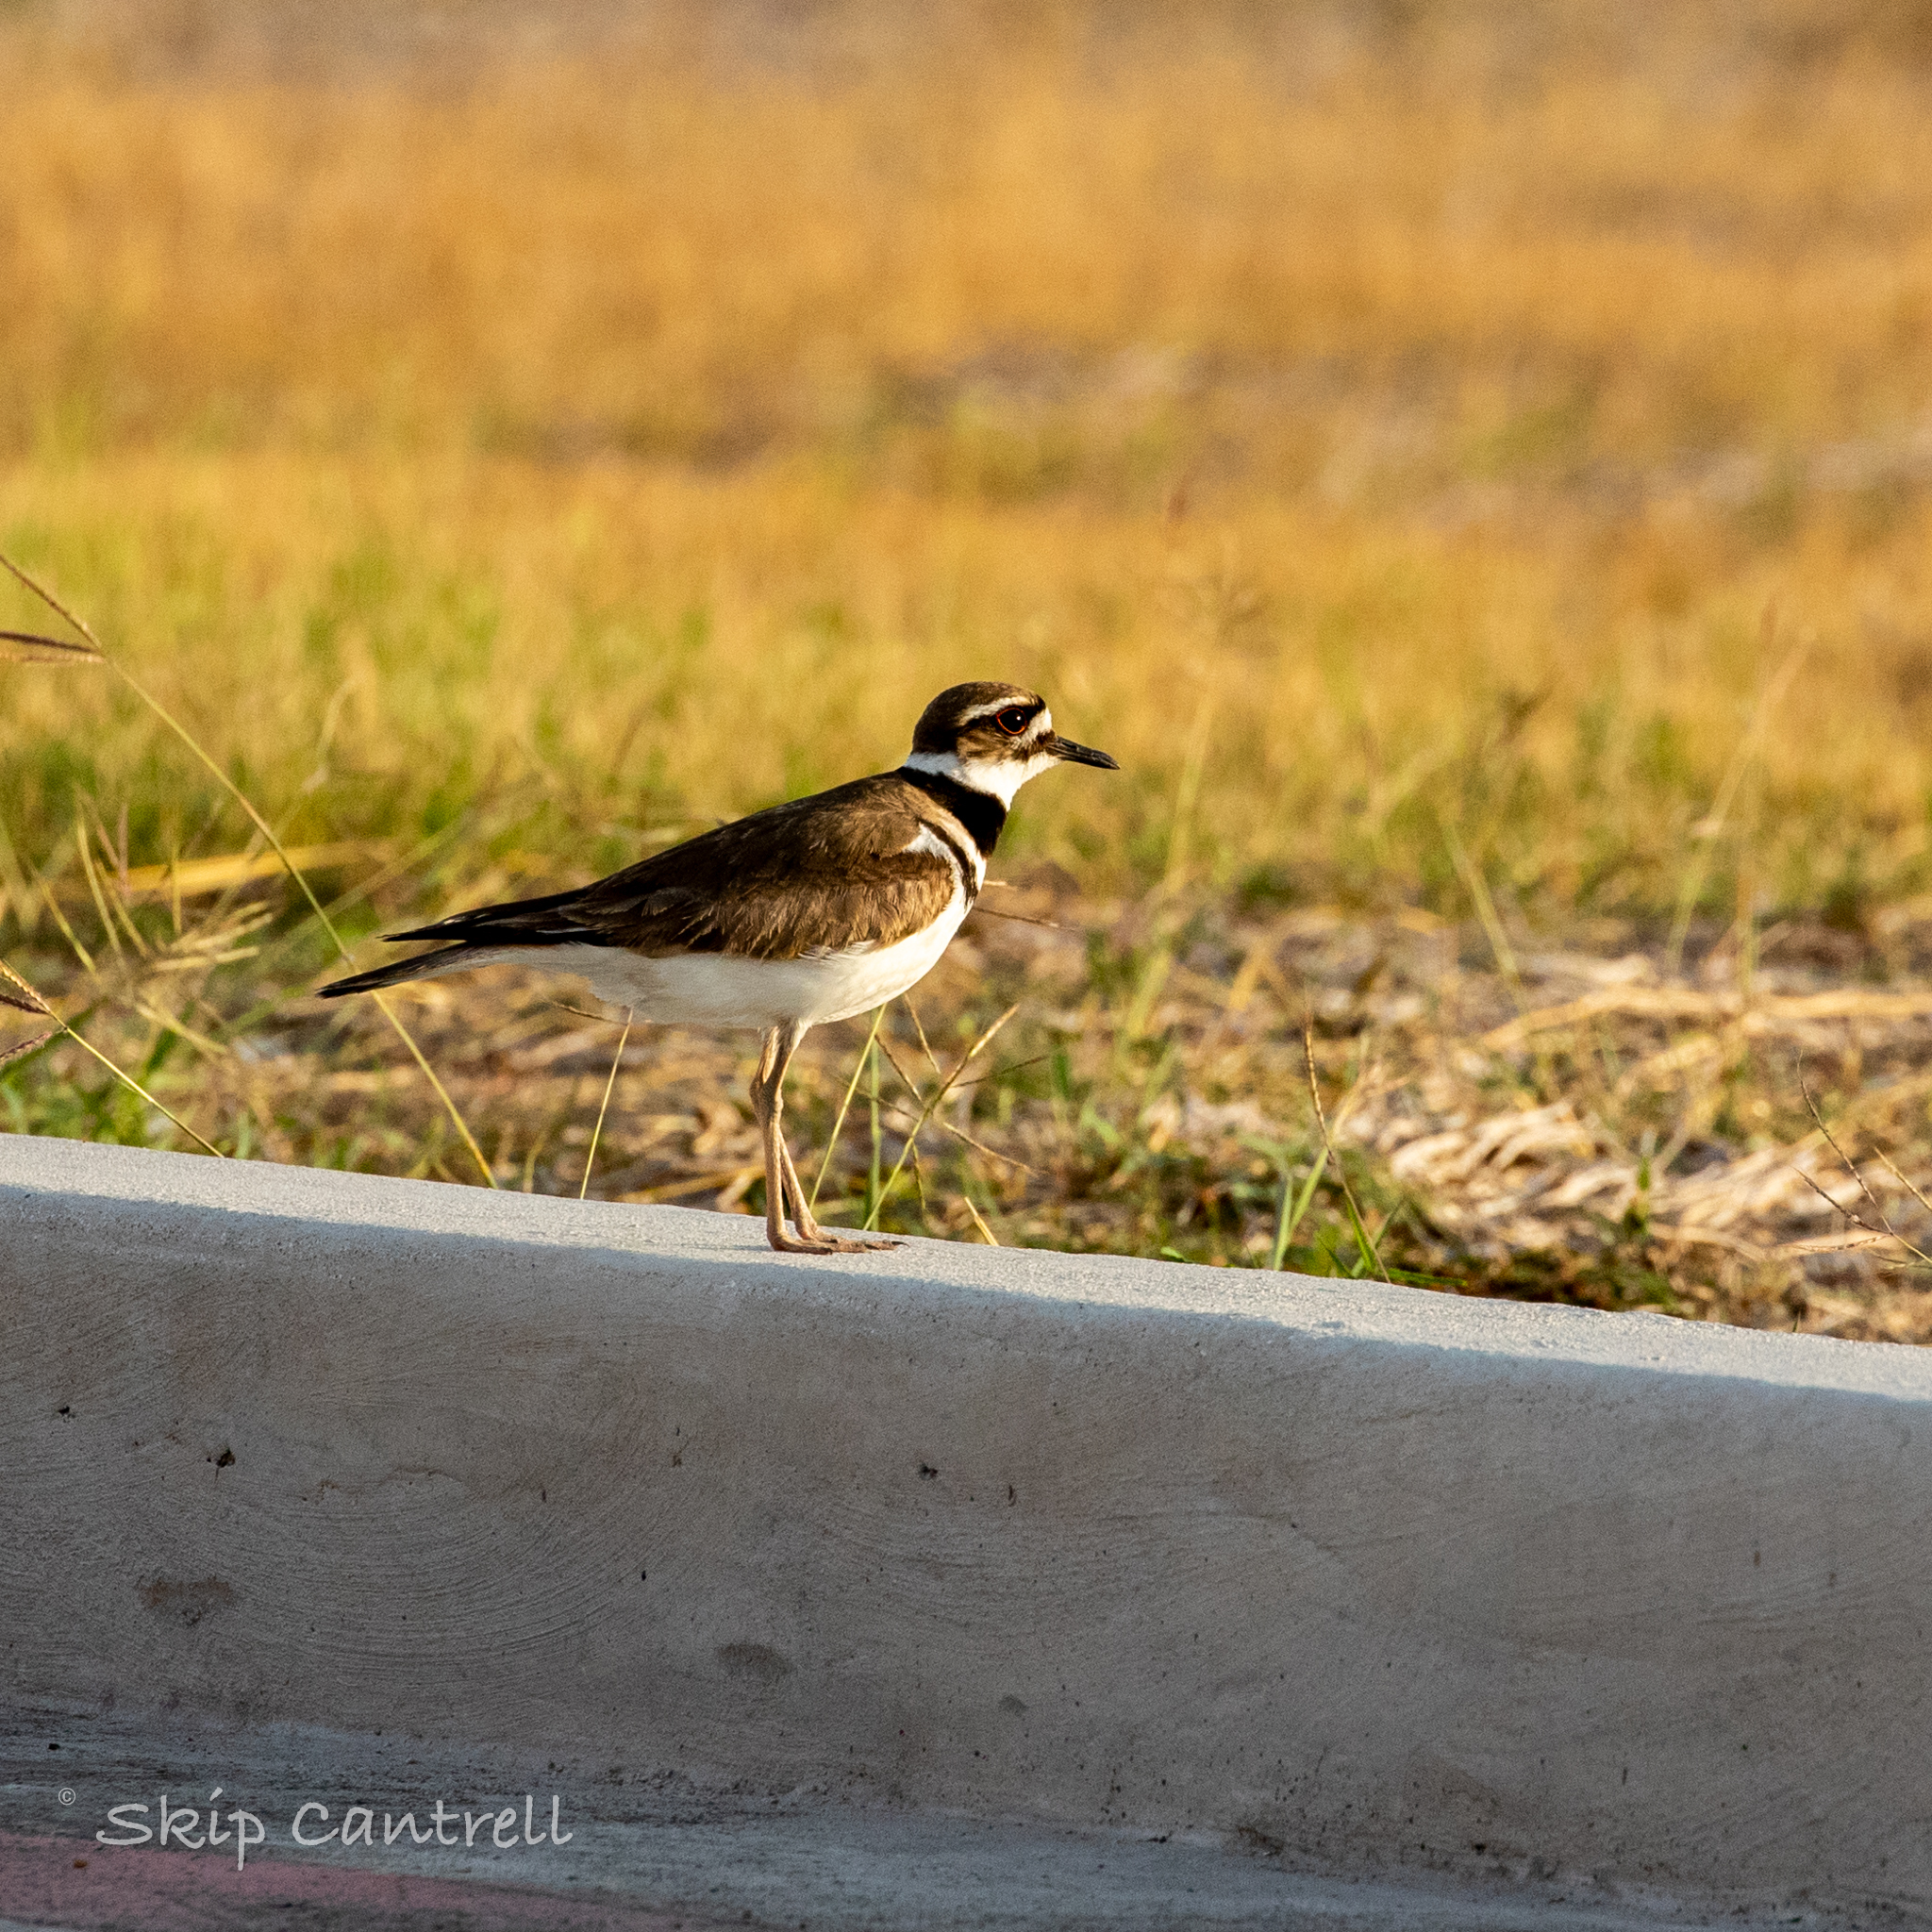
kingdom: Animalia
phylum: Chordata
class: Aves
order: Charadriiformes
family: Charadriidae
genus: Charadrius
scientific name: Charadrius vociferus
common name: Killdeer
